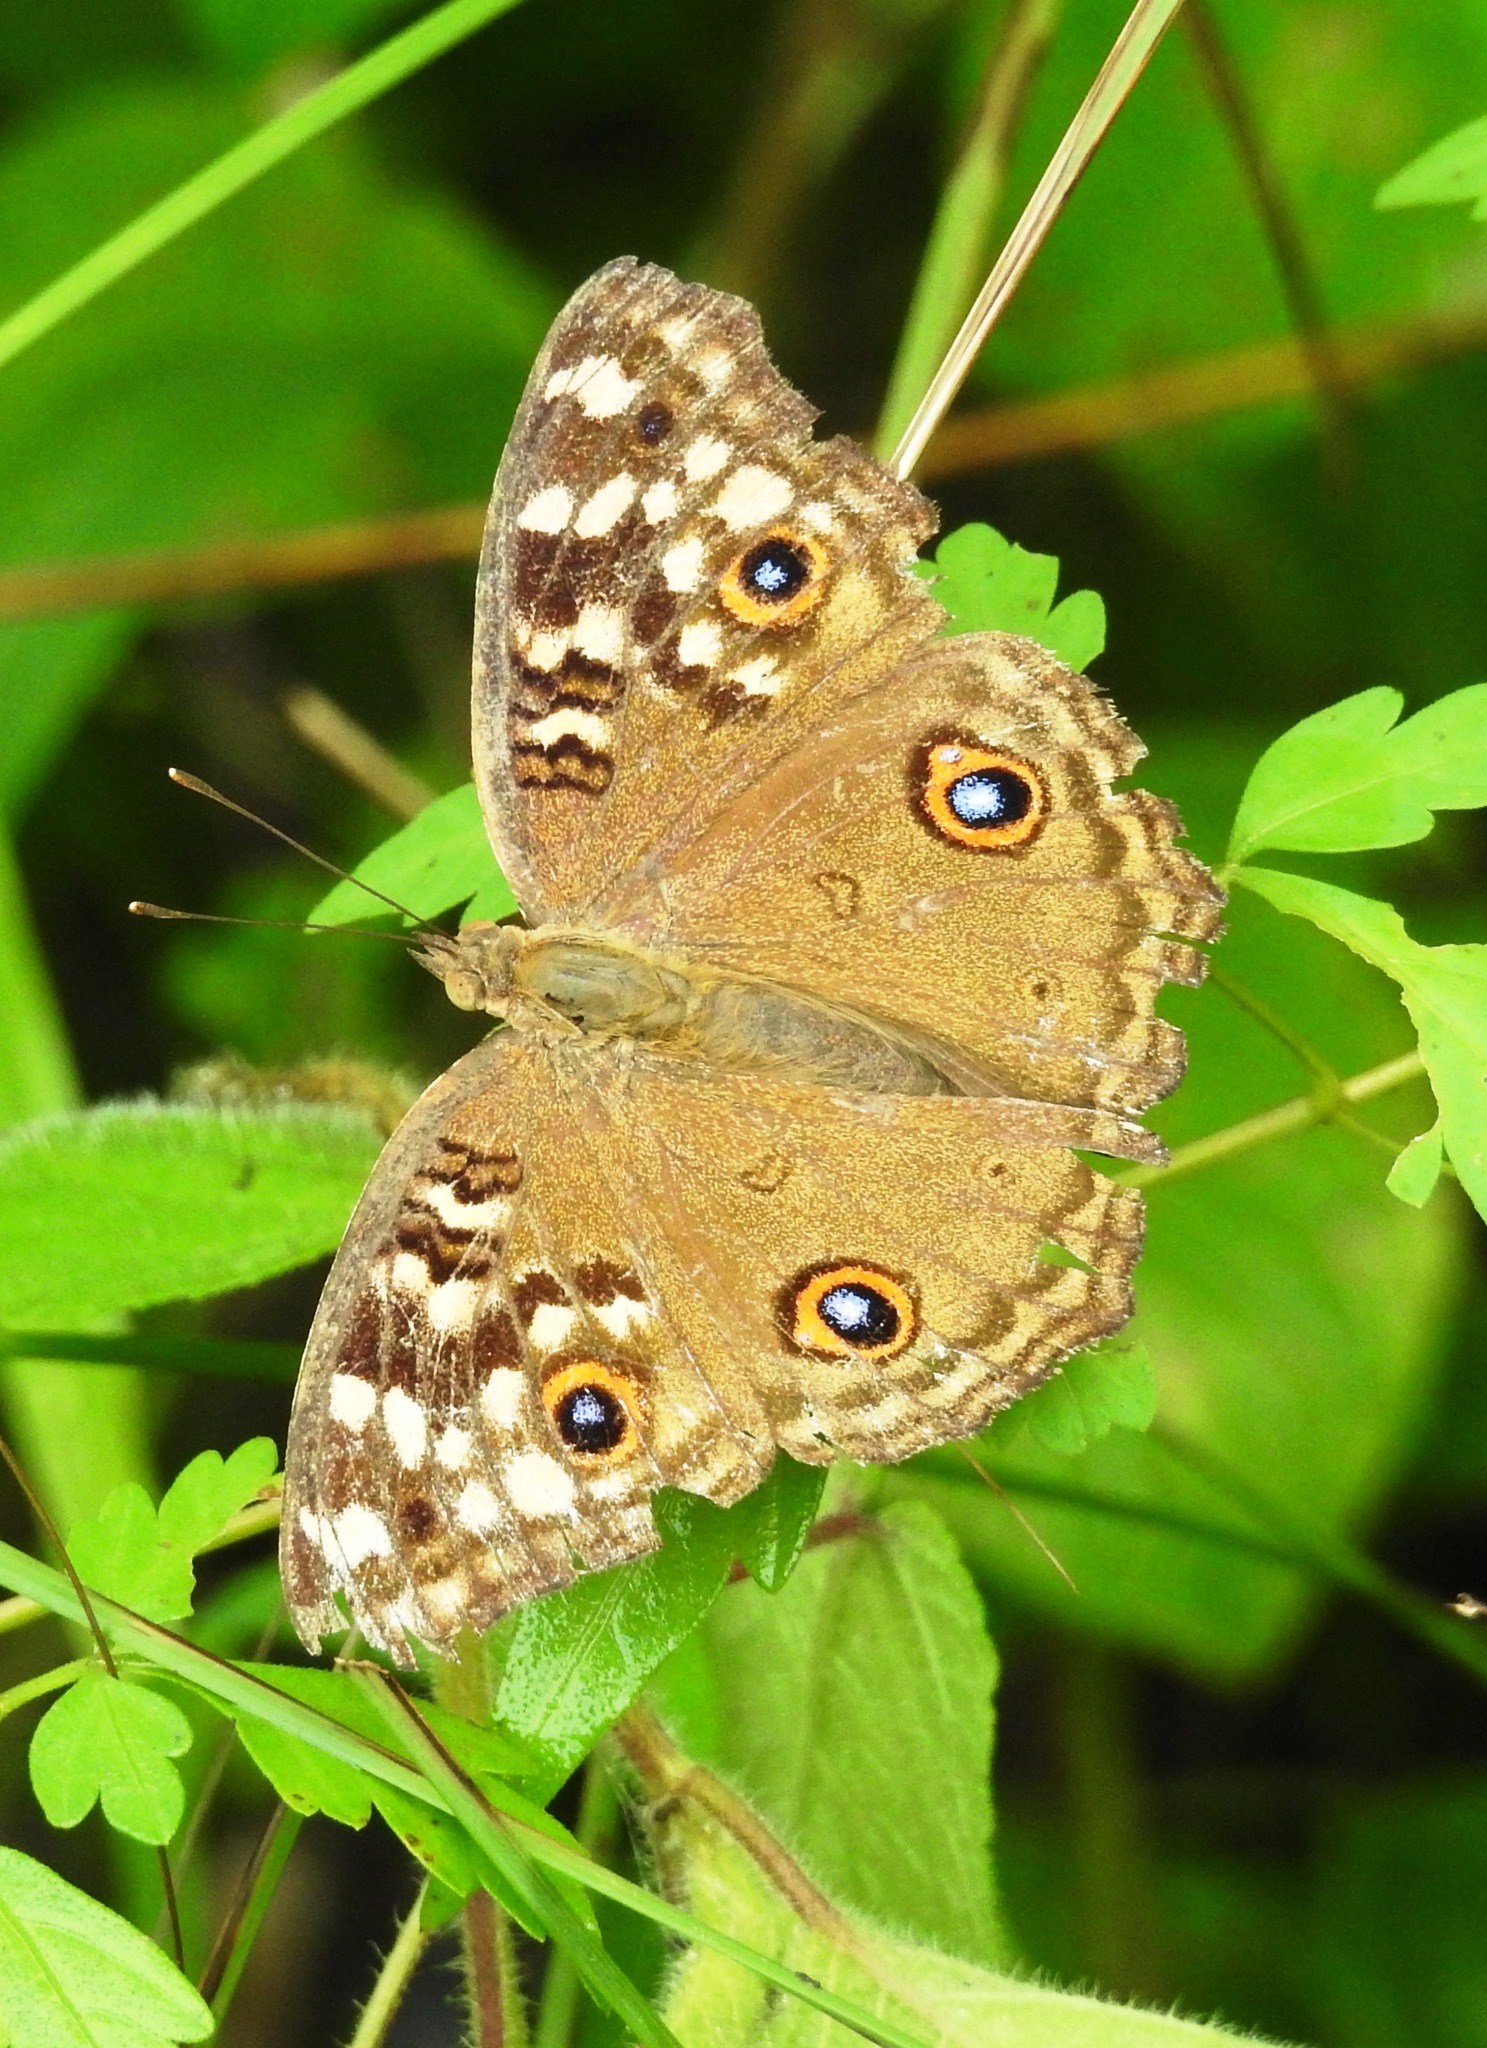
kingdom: Animalia
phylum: Arthropoda
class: Insecta
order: Lepidoptera
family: Nymphalidae
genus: Junonia
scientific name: Junonia lemonias
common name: Lemon pansy
